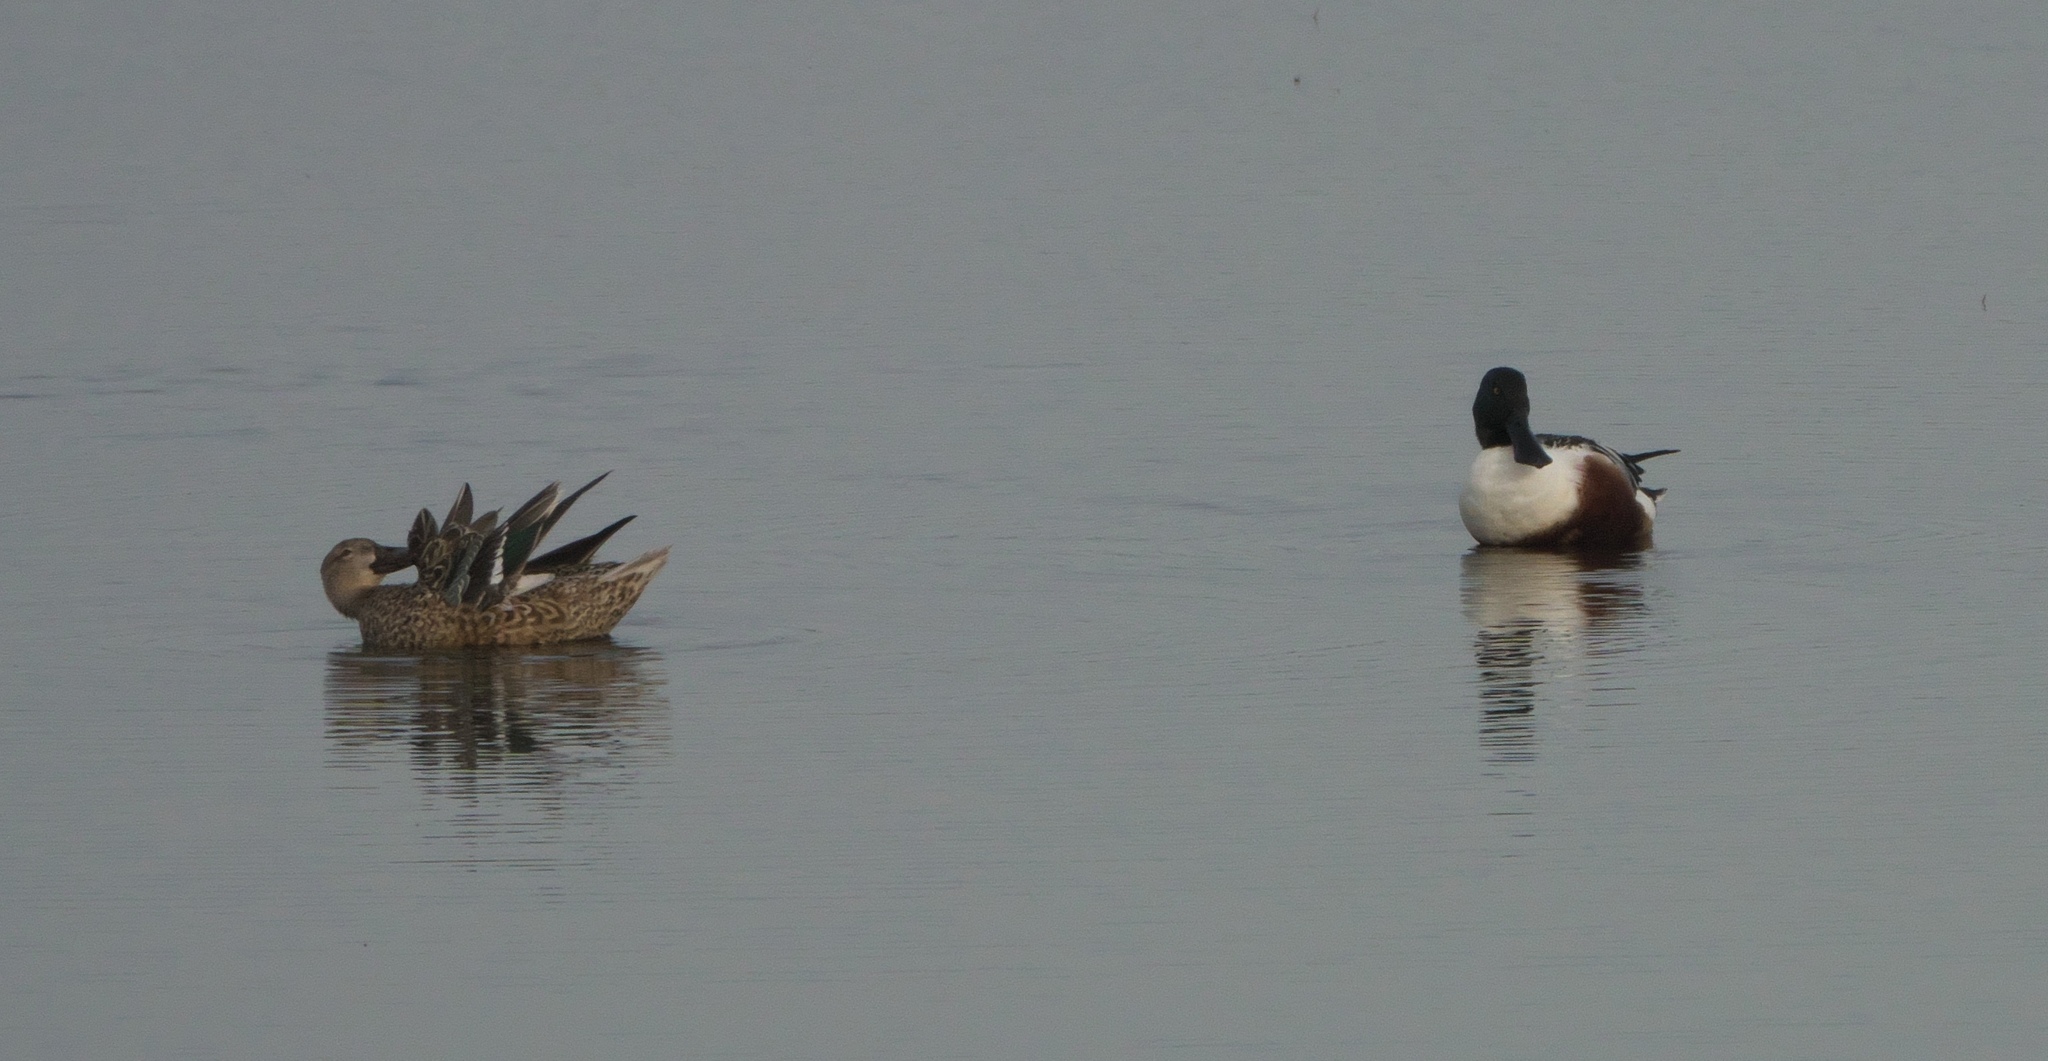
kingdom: Animalia
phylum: Chordata
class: Aves
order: Anseriformes
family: Anatidae
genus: Spatula
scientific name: Spatula clypeata
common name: Northern shoveler
